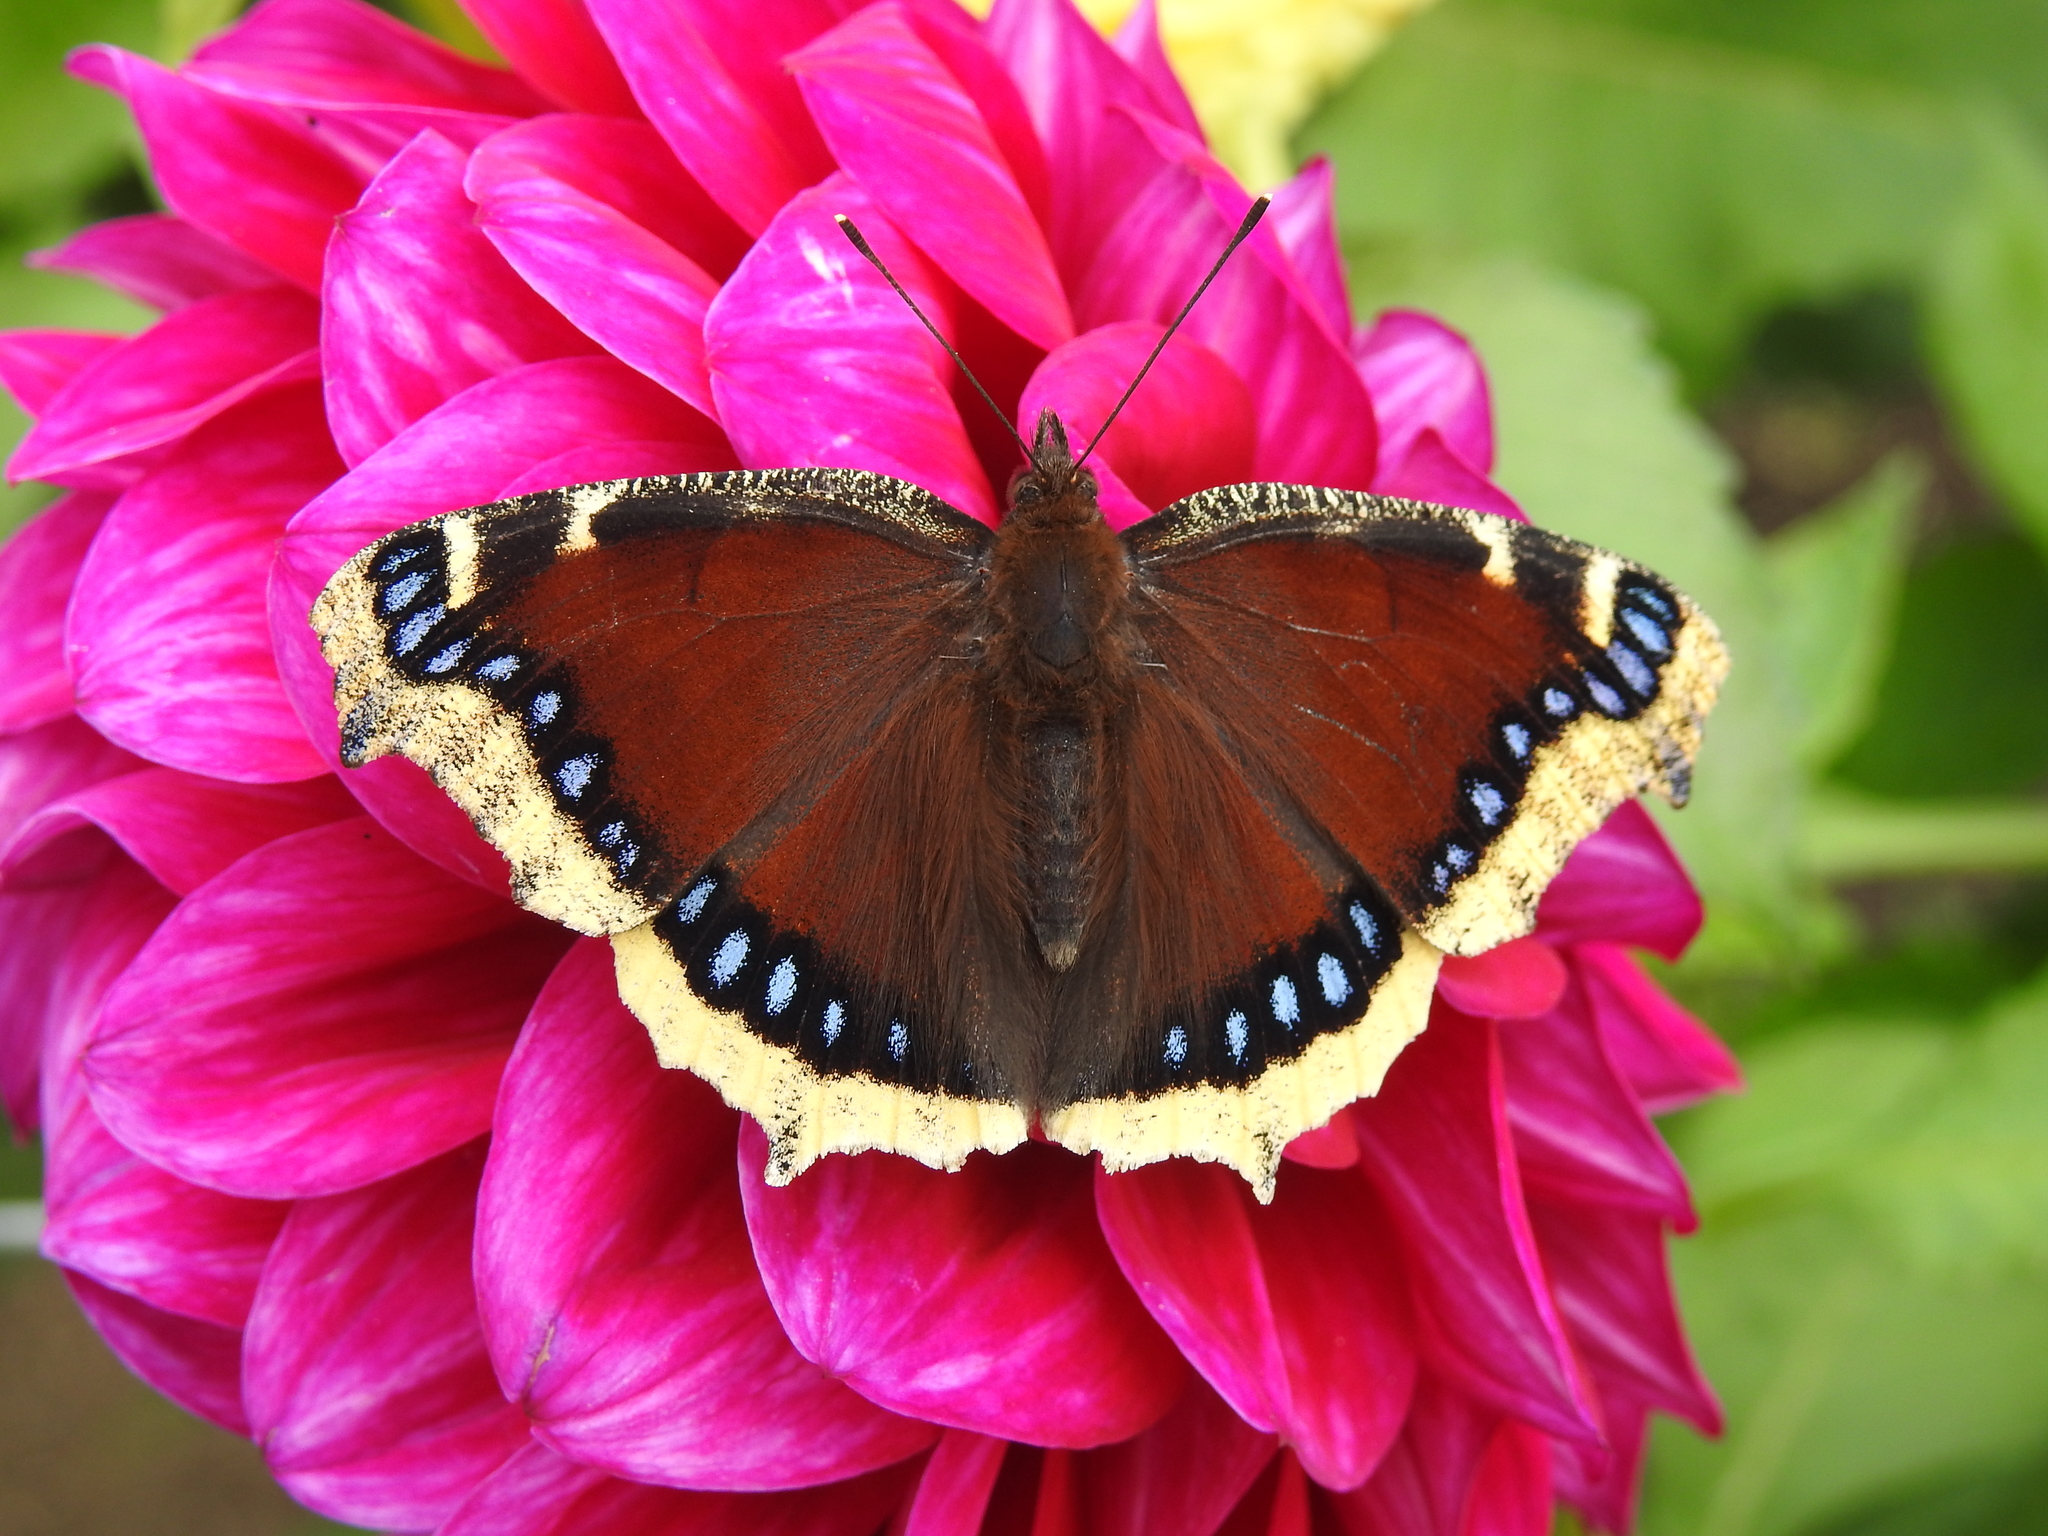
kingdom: Animalia
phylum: Arthropoda
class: Insecta
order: Lepidoptera
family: Nymphalidae
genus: Nymphalis
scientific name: Nymphalis antiopa
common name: Camberwell beauty
